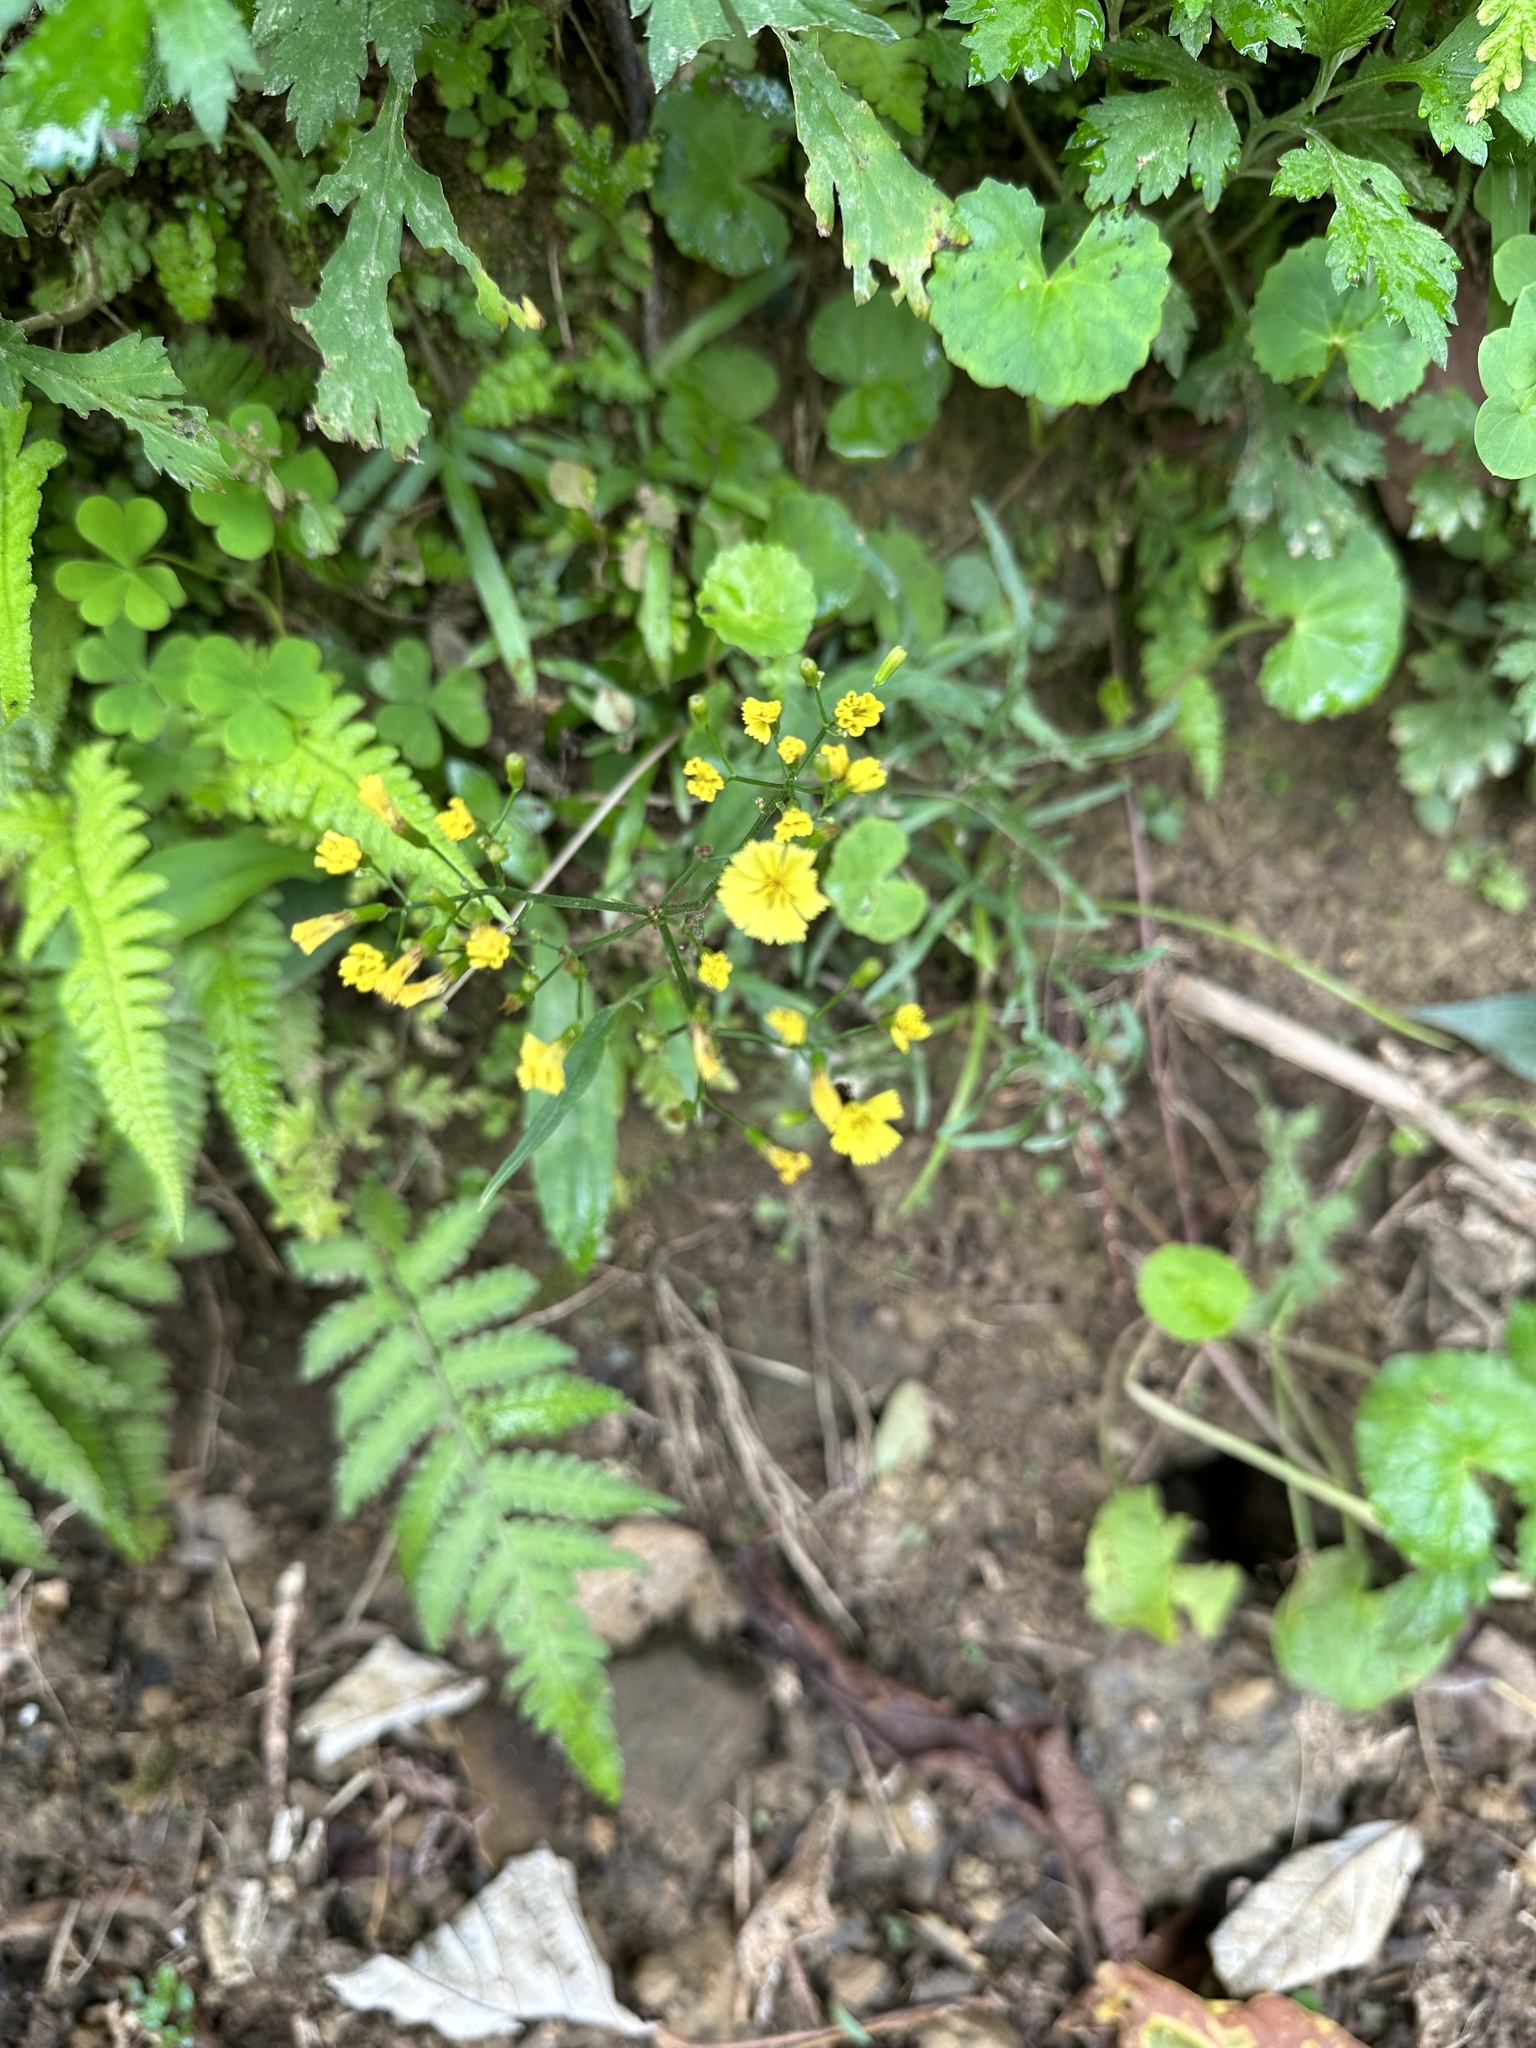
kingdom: Plantae
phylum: Tracheophyta
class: Magnoliopsida
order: Asterales
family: Asteraceae
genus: Ixeridium
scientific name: Ixeridium laevigatum
